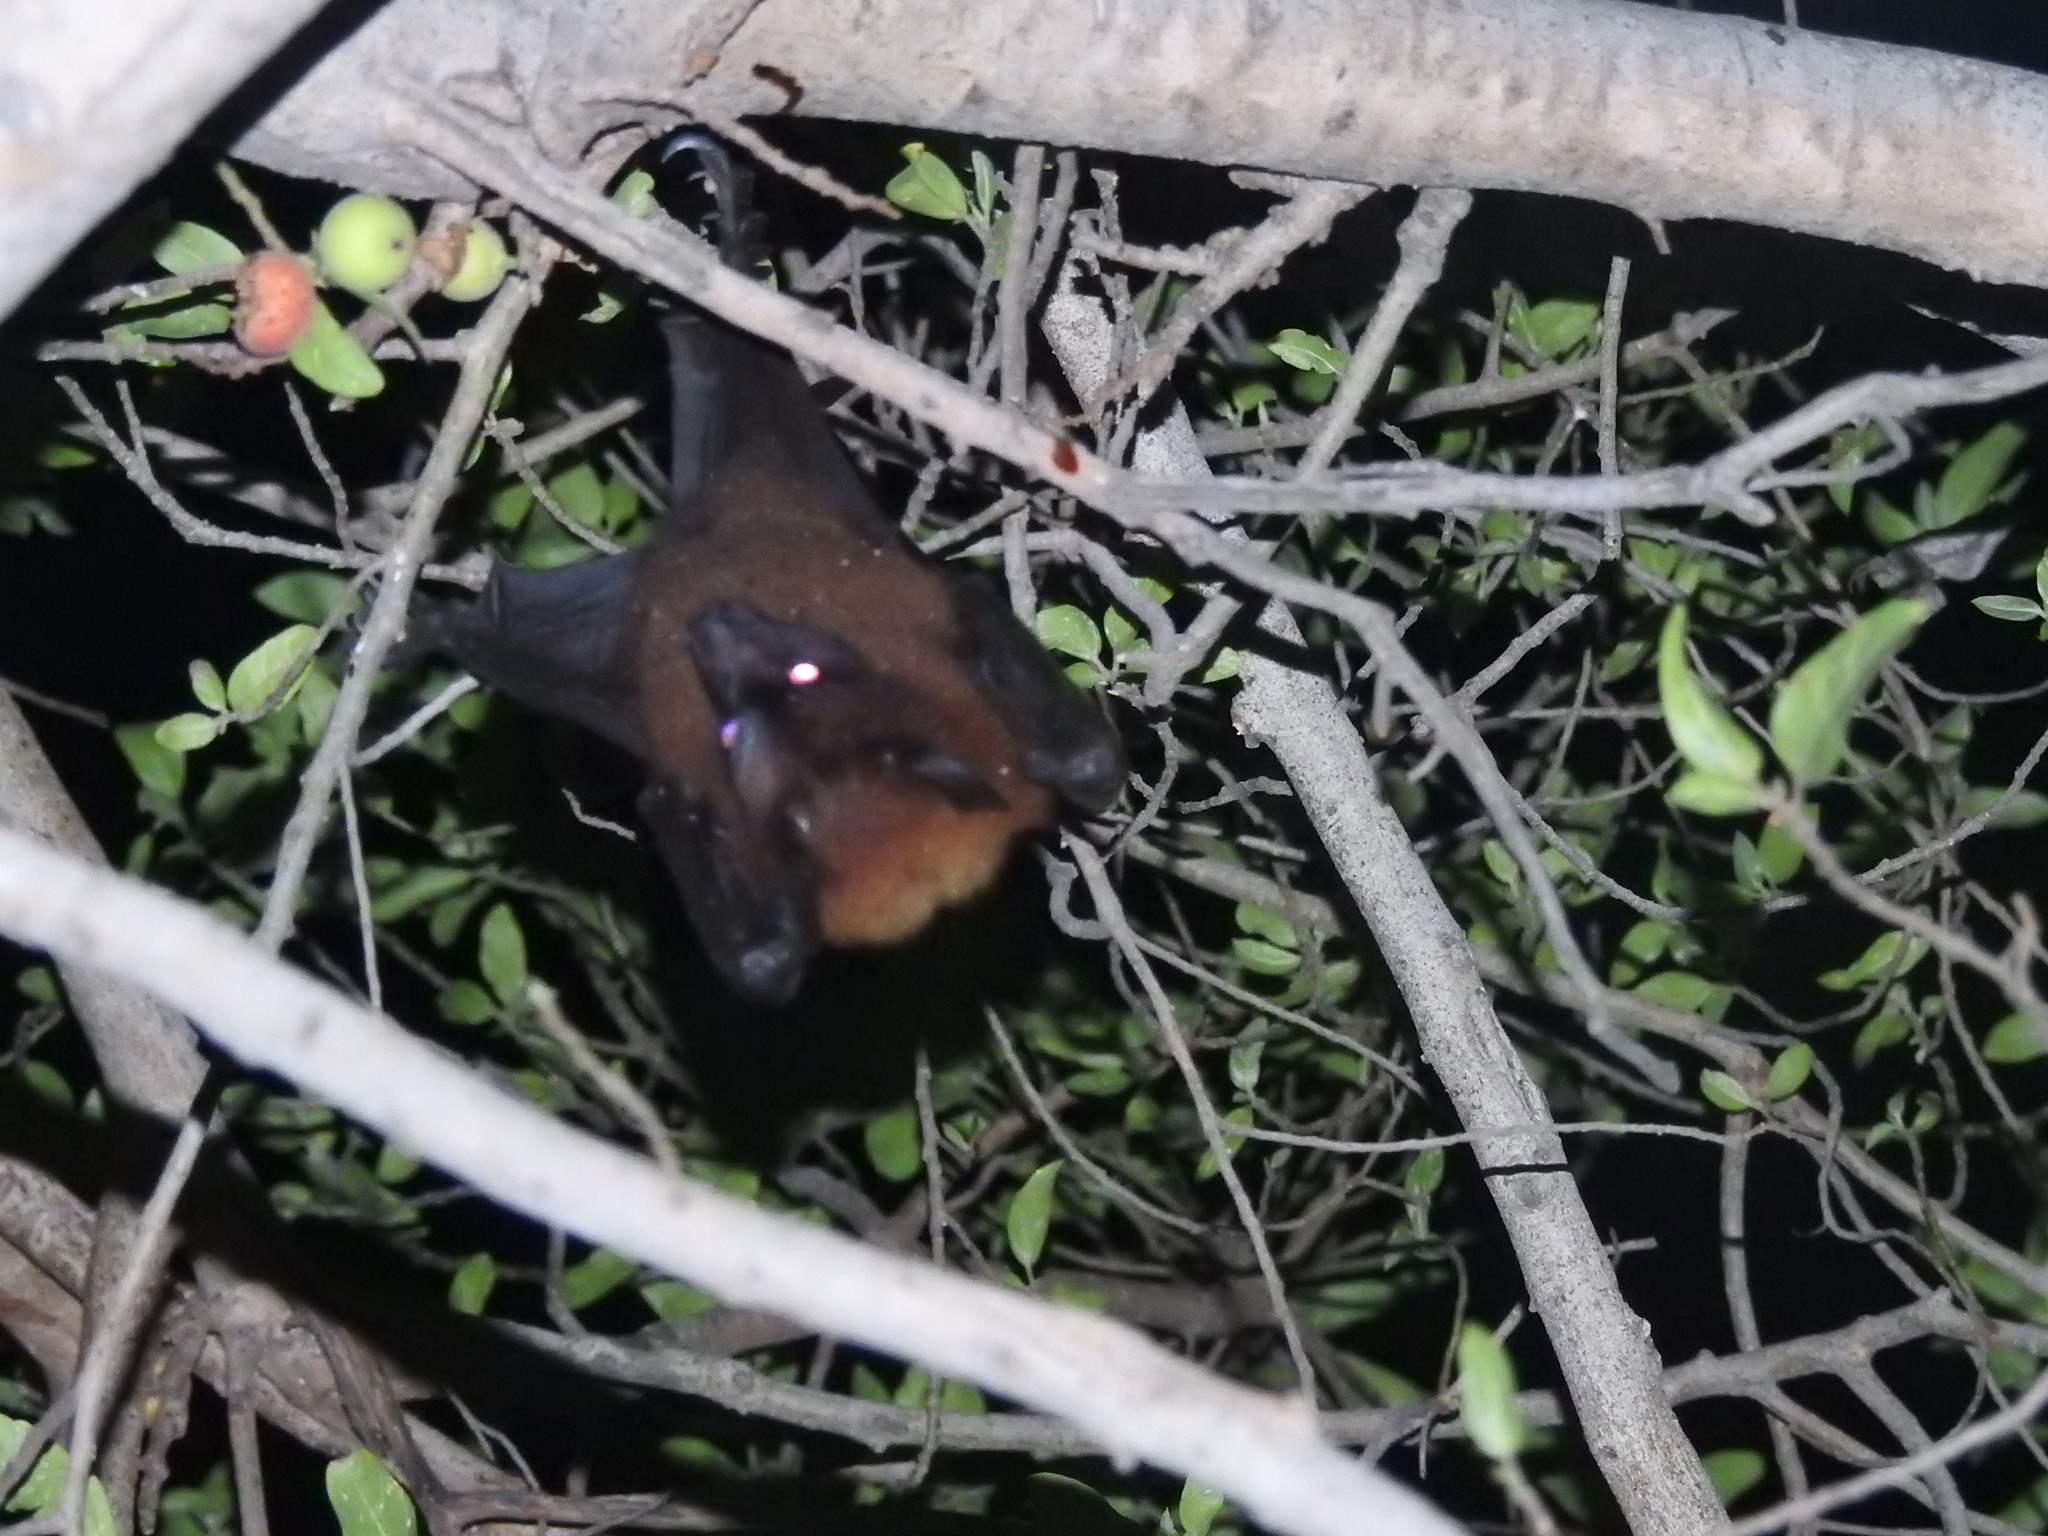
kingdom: Animalia
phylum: Chordata
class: Mammalia
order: Chiroptera
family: Pteropodidae
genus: Pteropus
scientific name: Pteropus vampyrus
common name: Large flying fox
